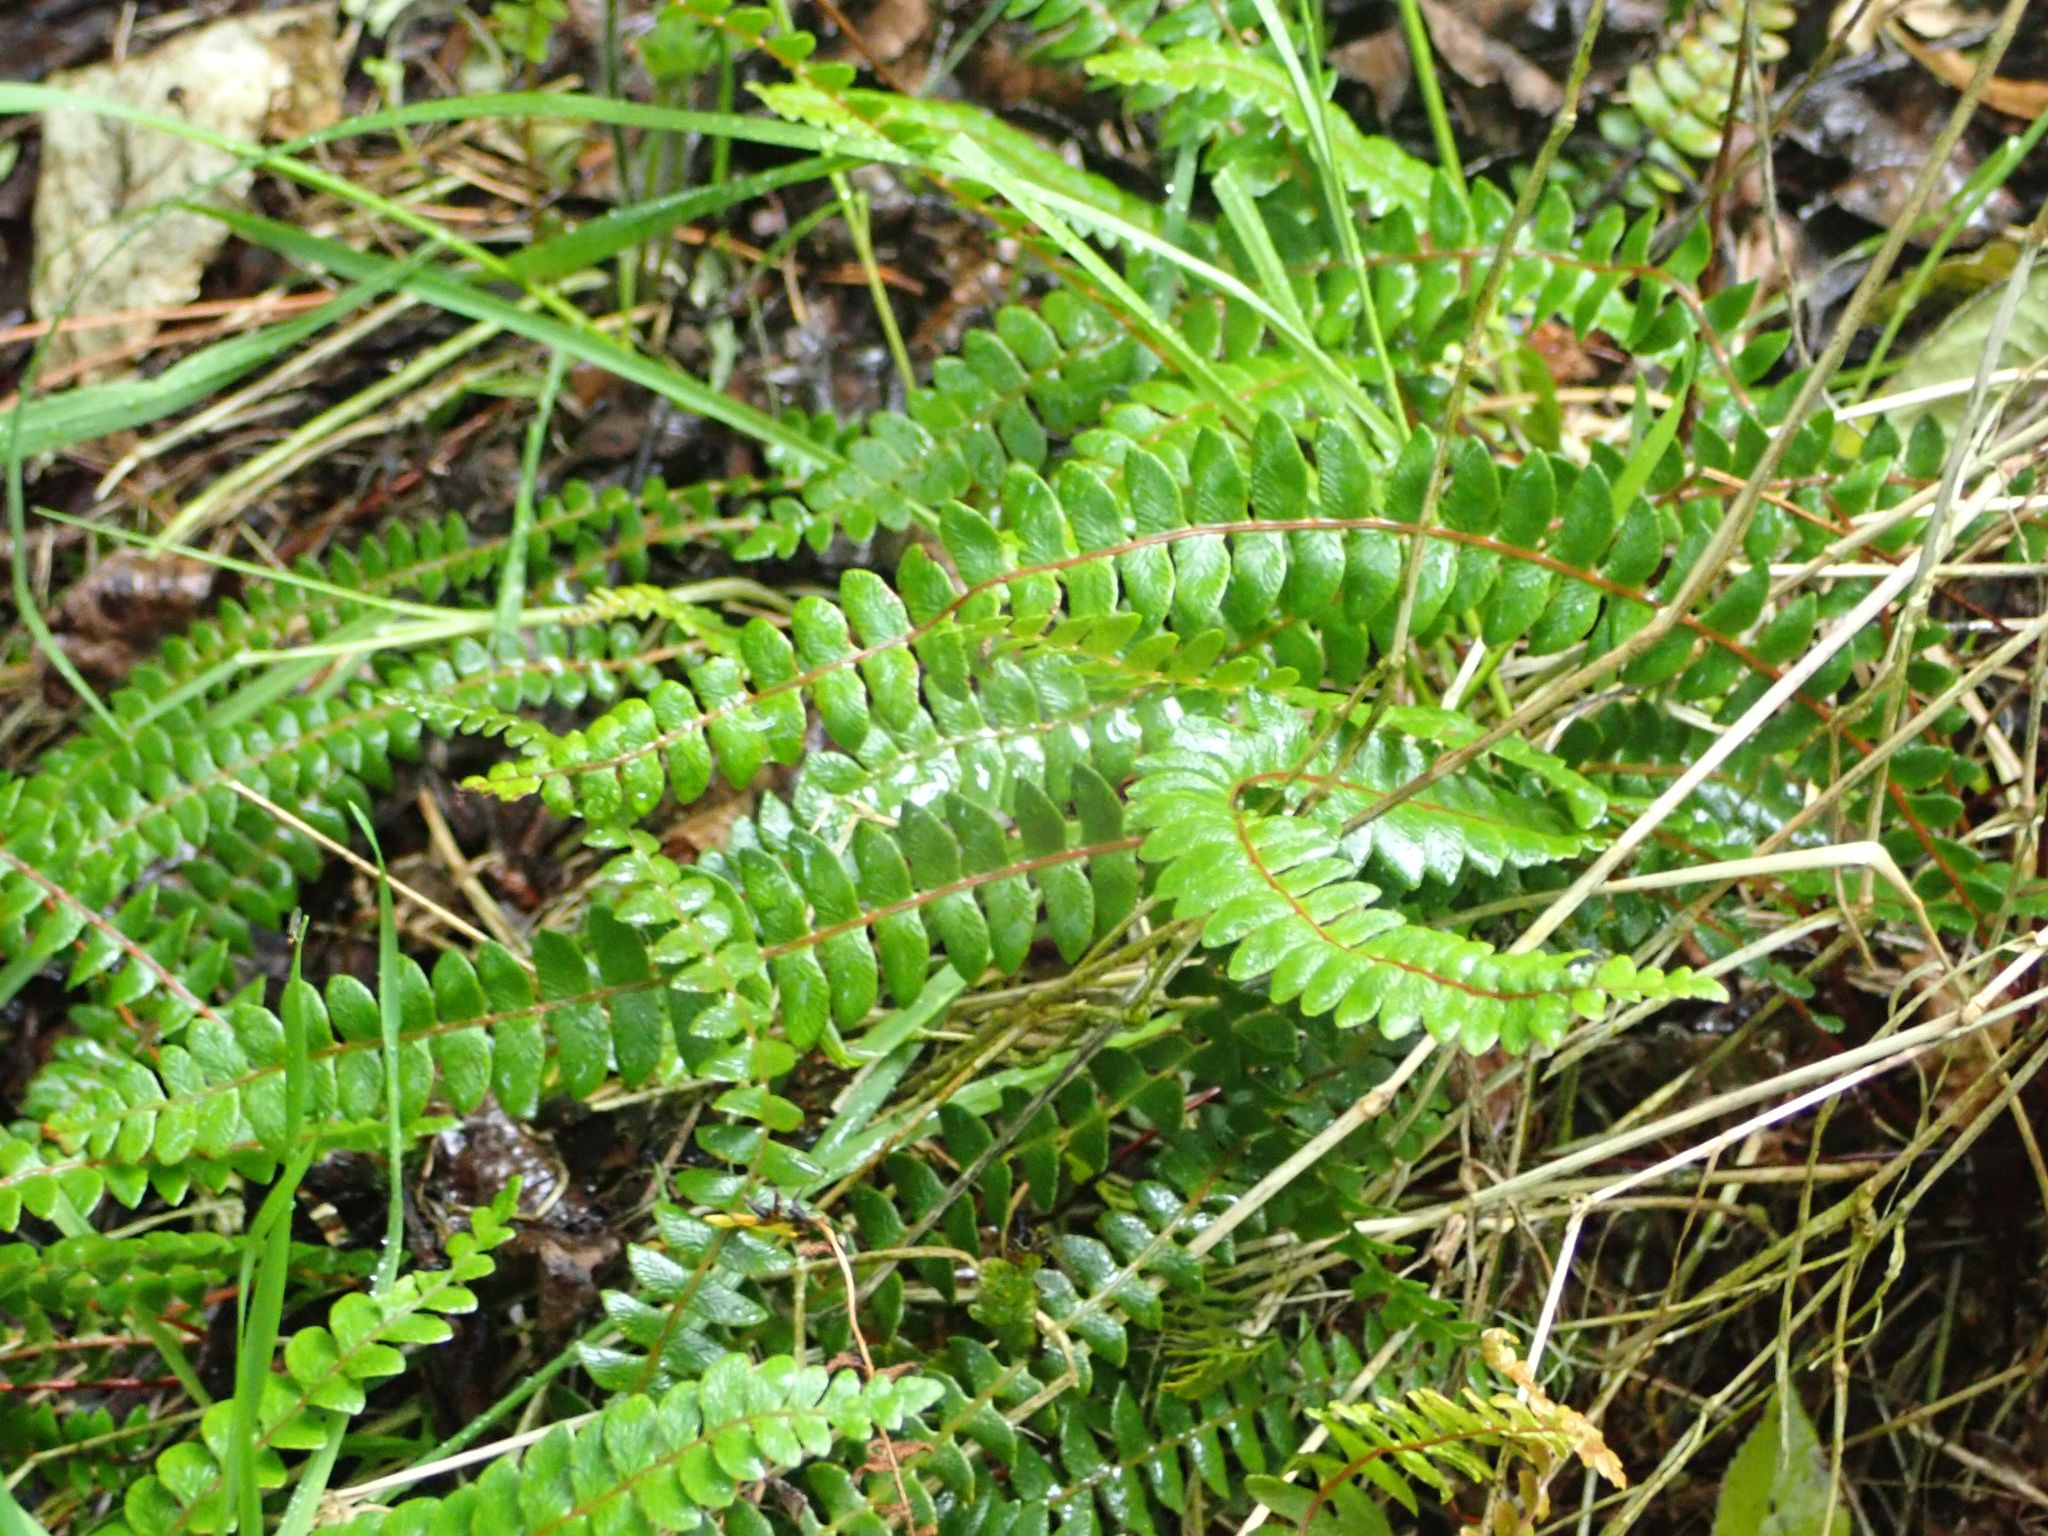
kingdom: Plantae
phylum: Tracheophyta
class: Polypodiopsida
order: Polypodiales
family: Blechnaceae
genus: Austroblechnum
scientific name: Austroblechnum penna-marina
